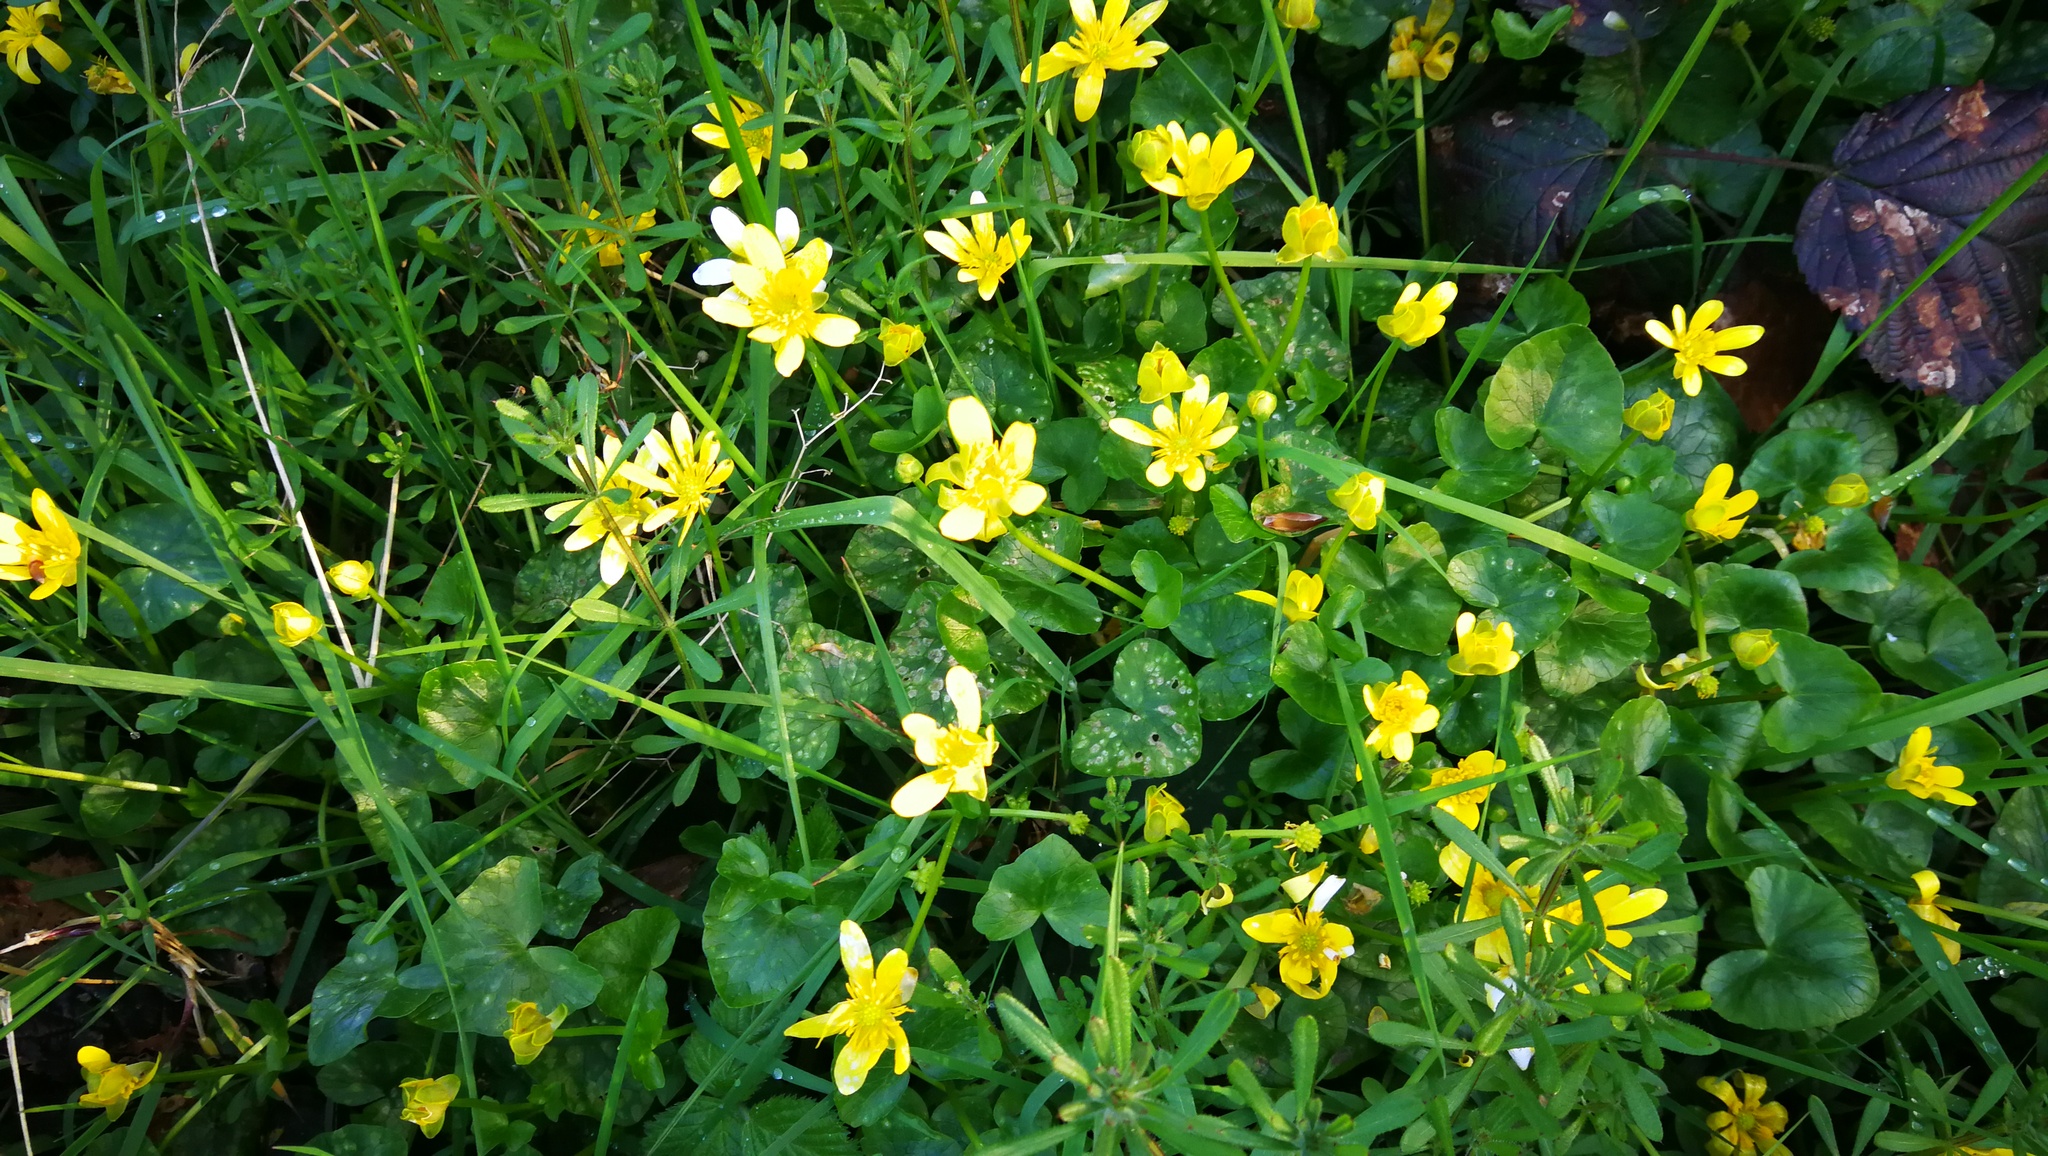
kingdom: Plantae
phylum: Tracheophyta
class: Magnoliopsida
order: Ranunculales
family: Ranunculaceae
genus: Ficaria
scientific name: Ficaria verna
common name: Lesser celandine
